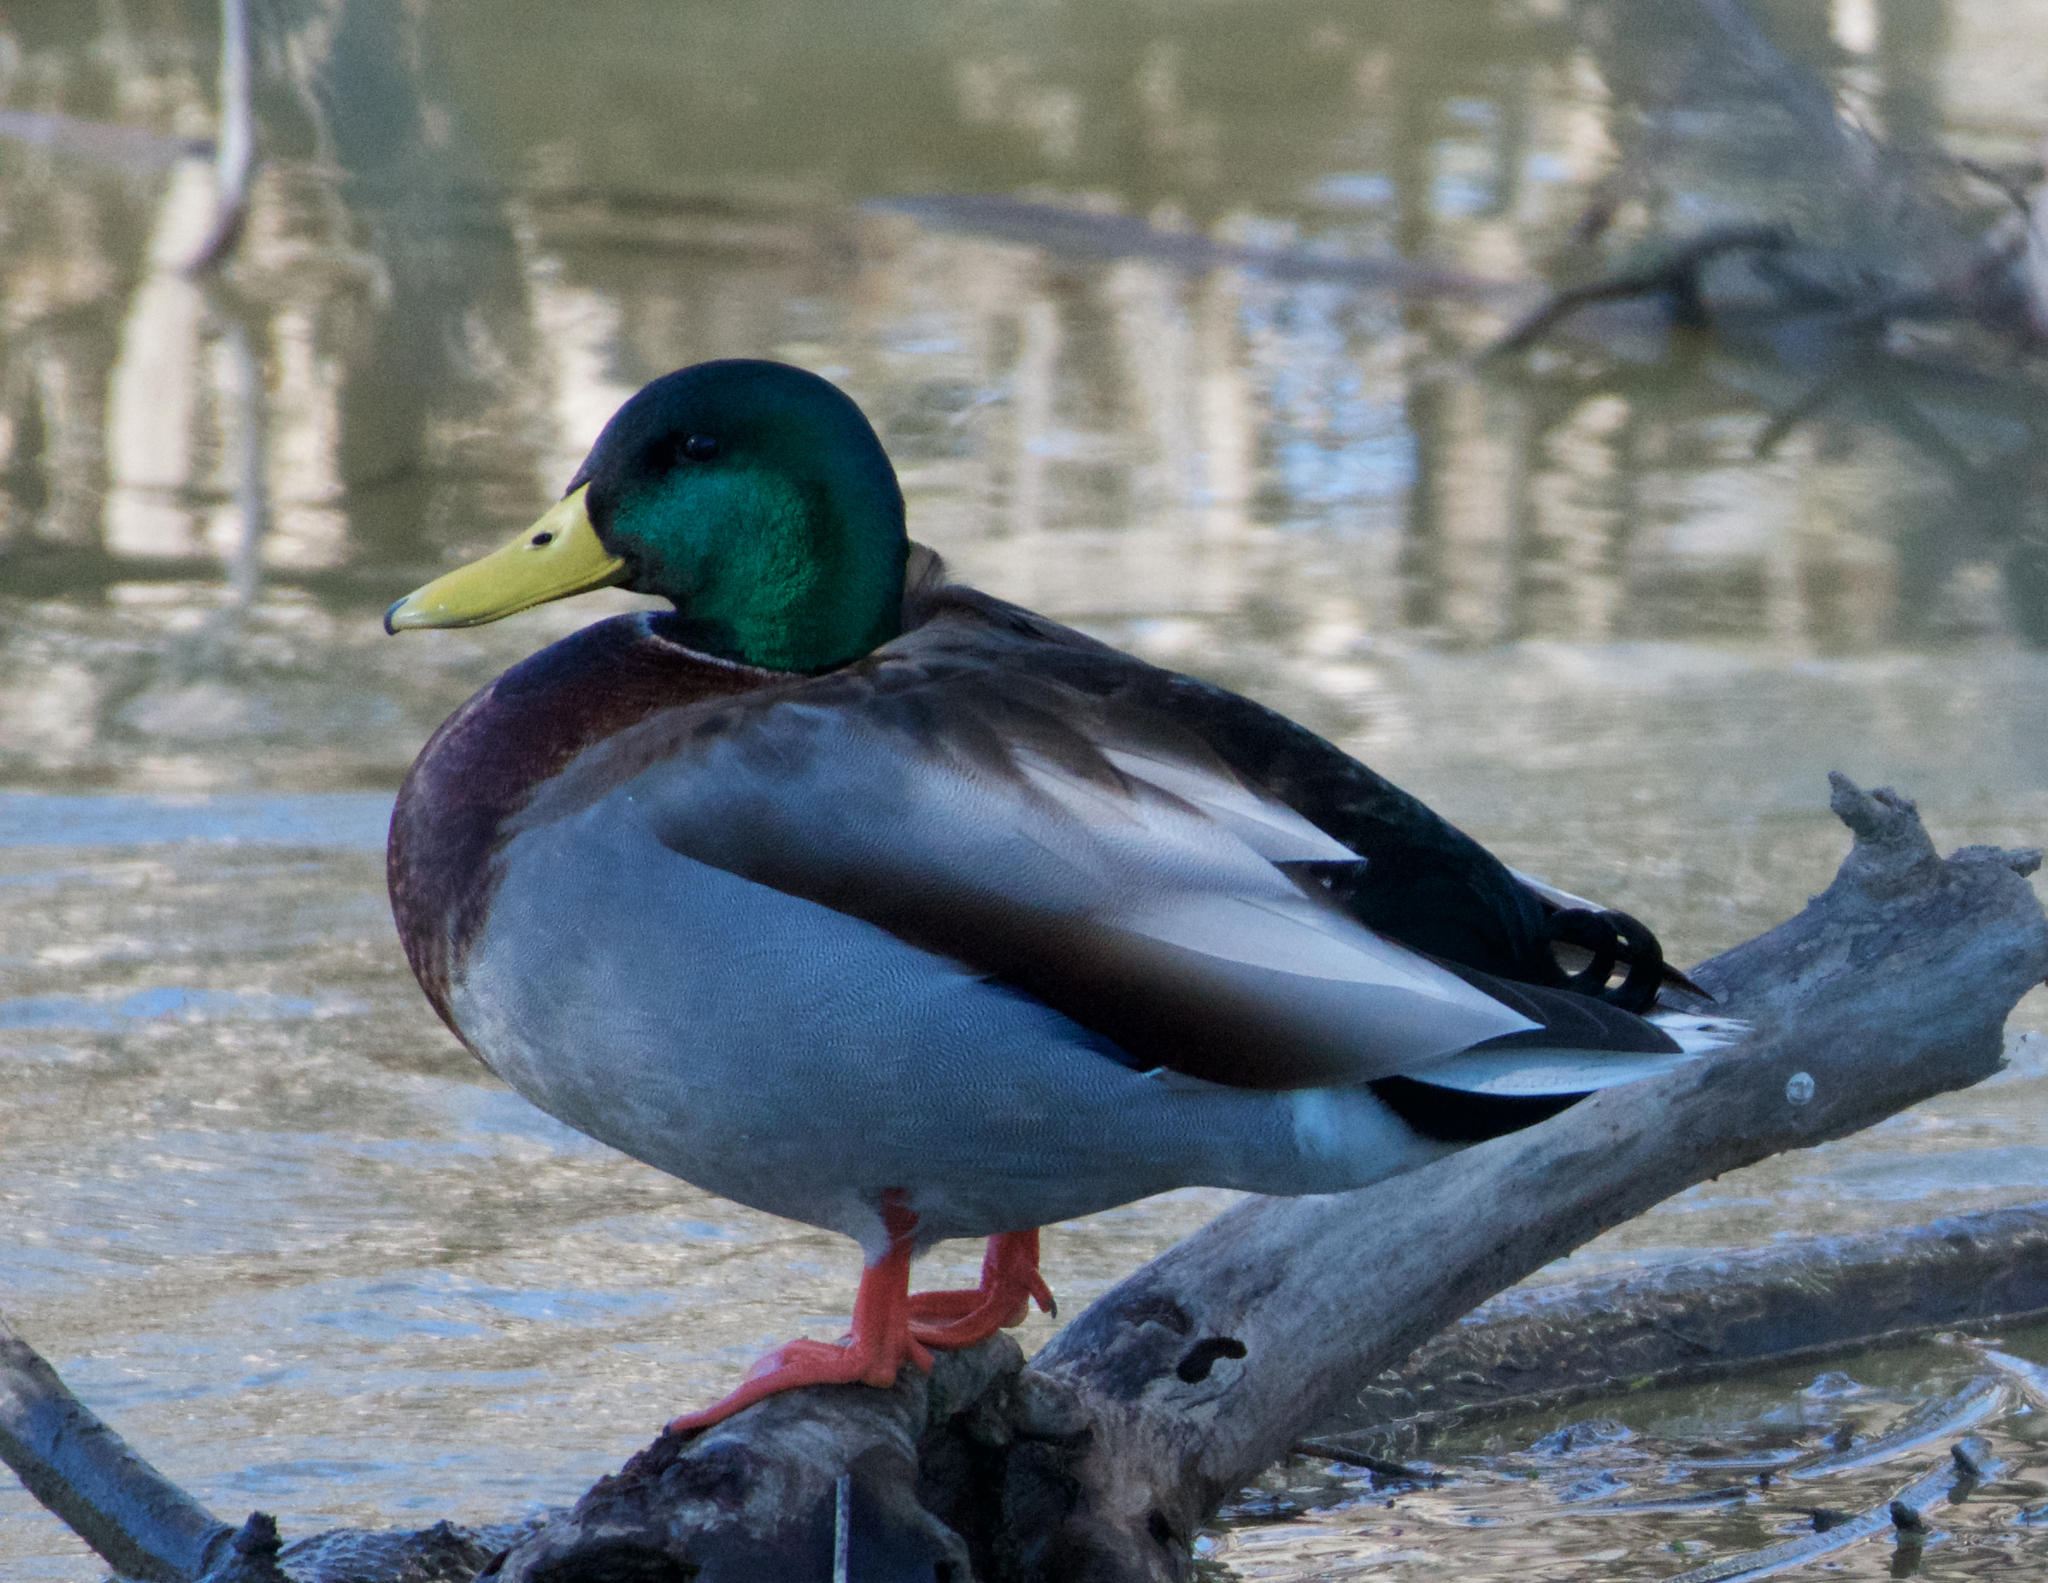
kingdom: Animalia
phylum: Chordata
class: Aves
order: Anseriformes
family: Anatidae
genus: Anas
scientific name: Anas platyrhynchos
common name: Mallard
